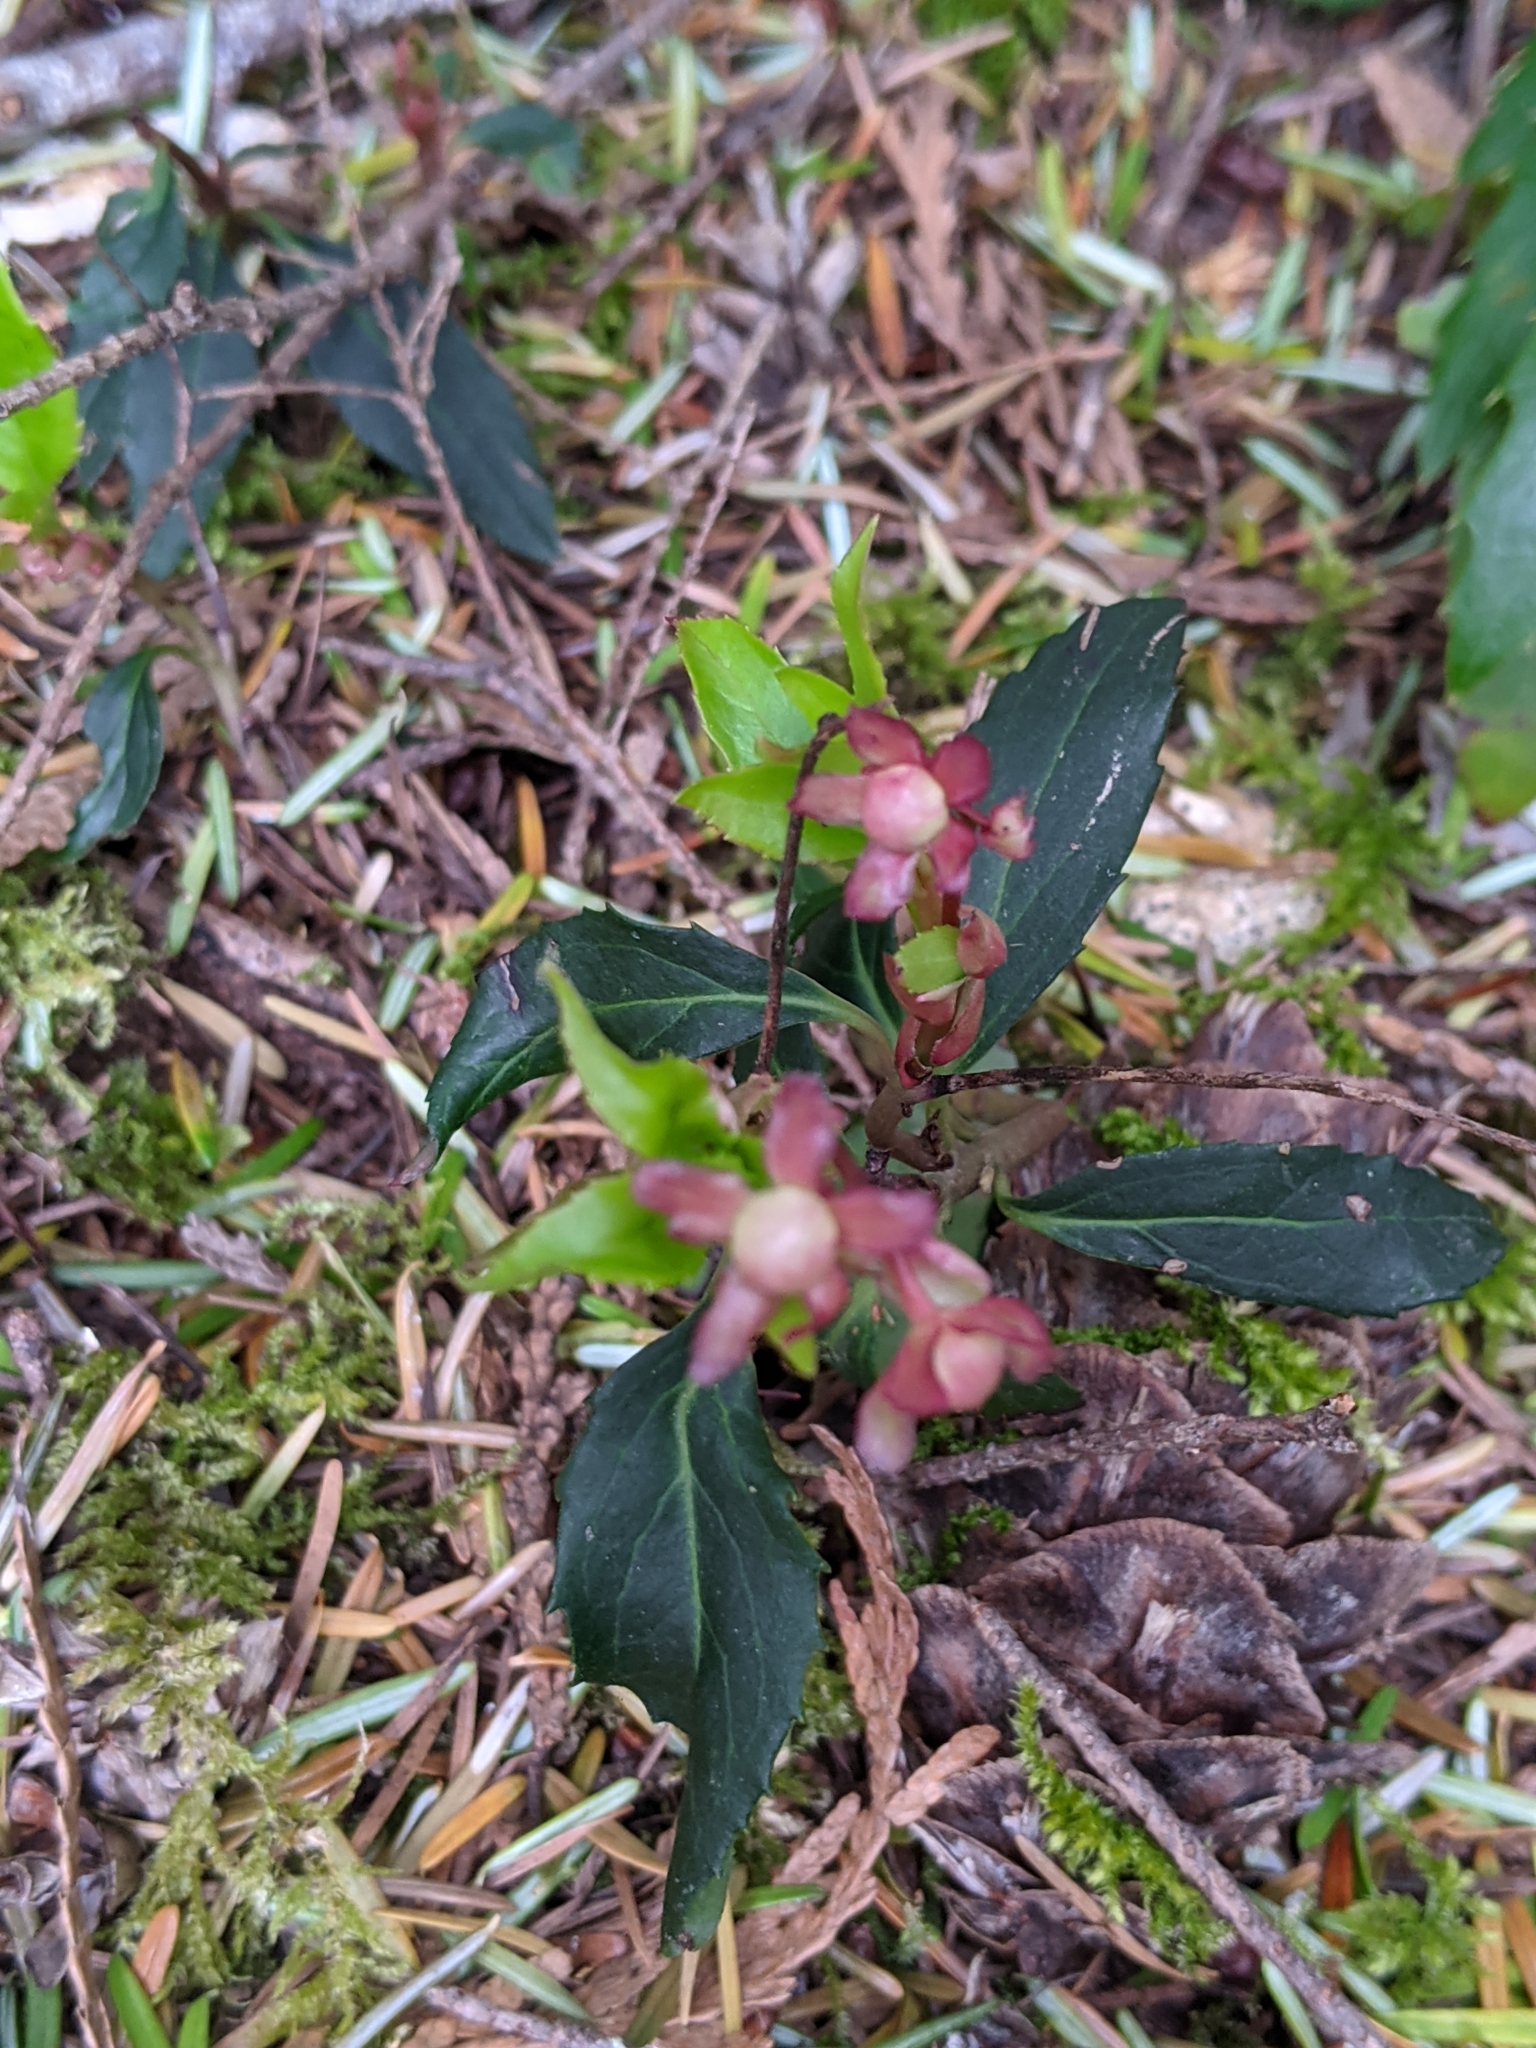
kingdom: Plantae
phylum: Tracheophyta
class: Magnoliopsida
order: Ericales
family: Ericaceae
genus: Chimaphila
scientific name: Chimaphila menziesii
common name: Menzies' pipsissewa
